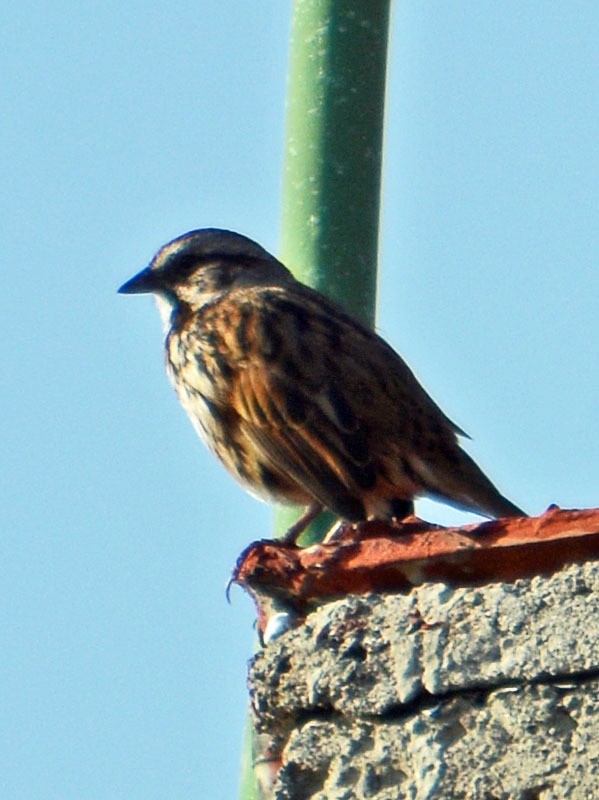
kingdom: Animalia
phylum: Chordata
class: Aves
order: Passeriformes
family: Passerellidae
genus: Melospiza
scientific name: Melospiza melodia
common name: Song sparrow
